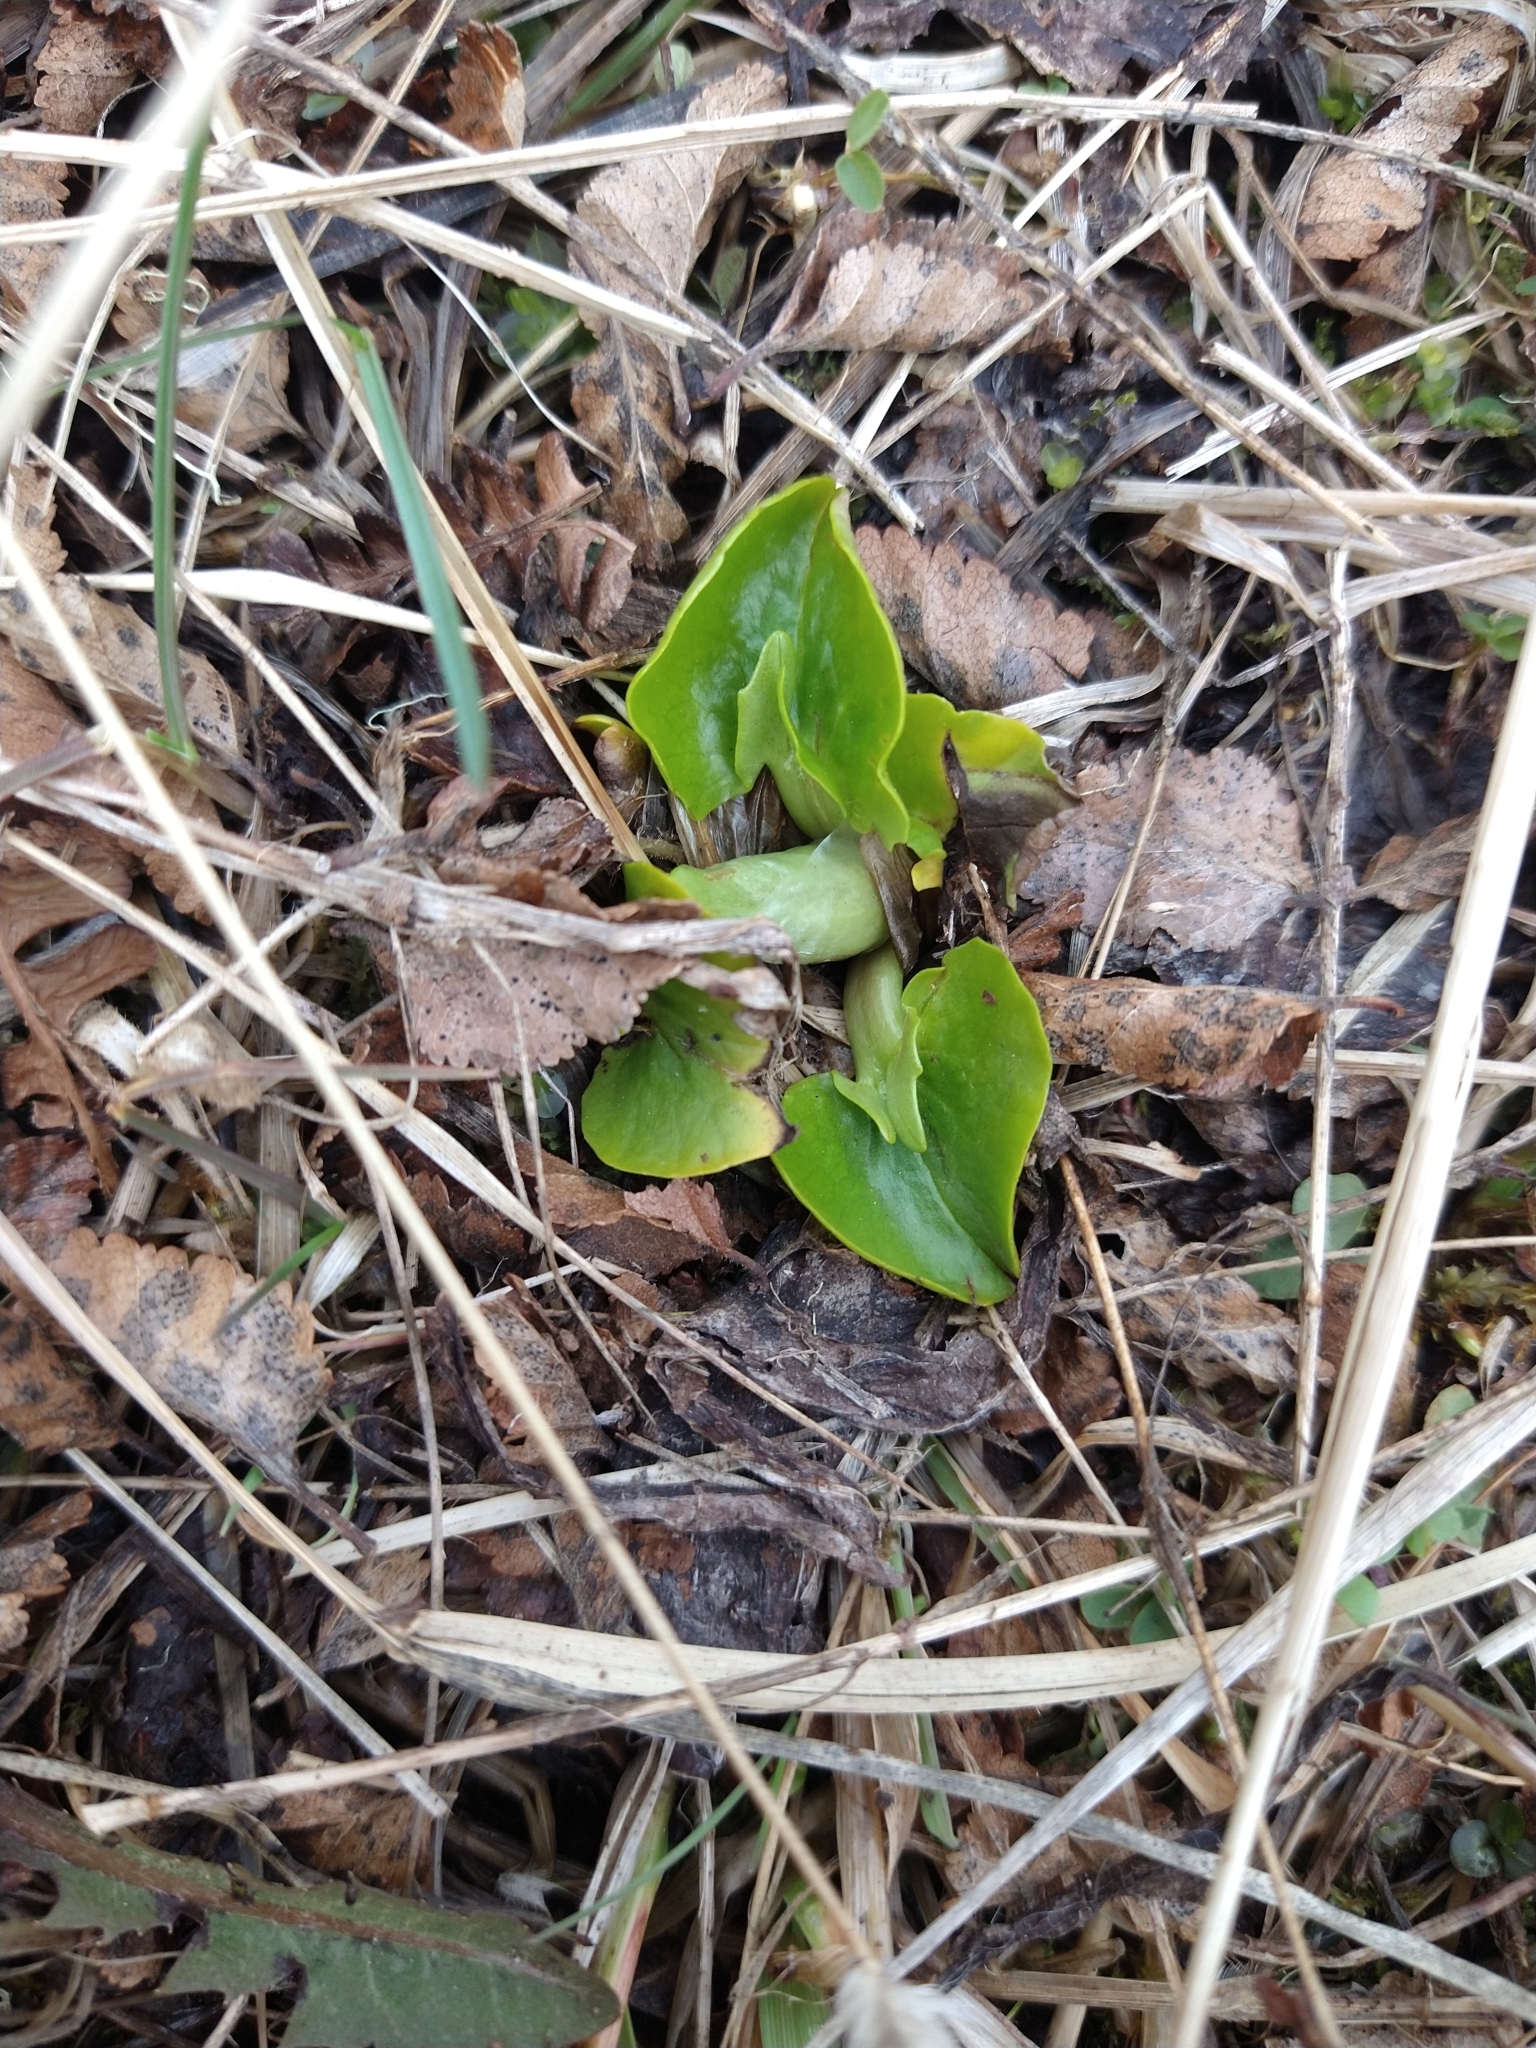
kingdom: Plantae
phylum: Tracheophyta
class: Magnoliopsida
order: Ranunculales
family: Ranunculaceae
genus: Caltha
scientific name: Caltha sagittata
